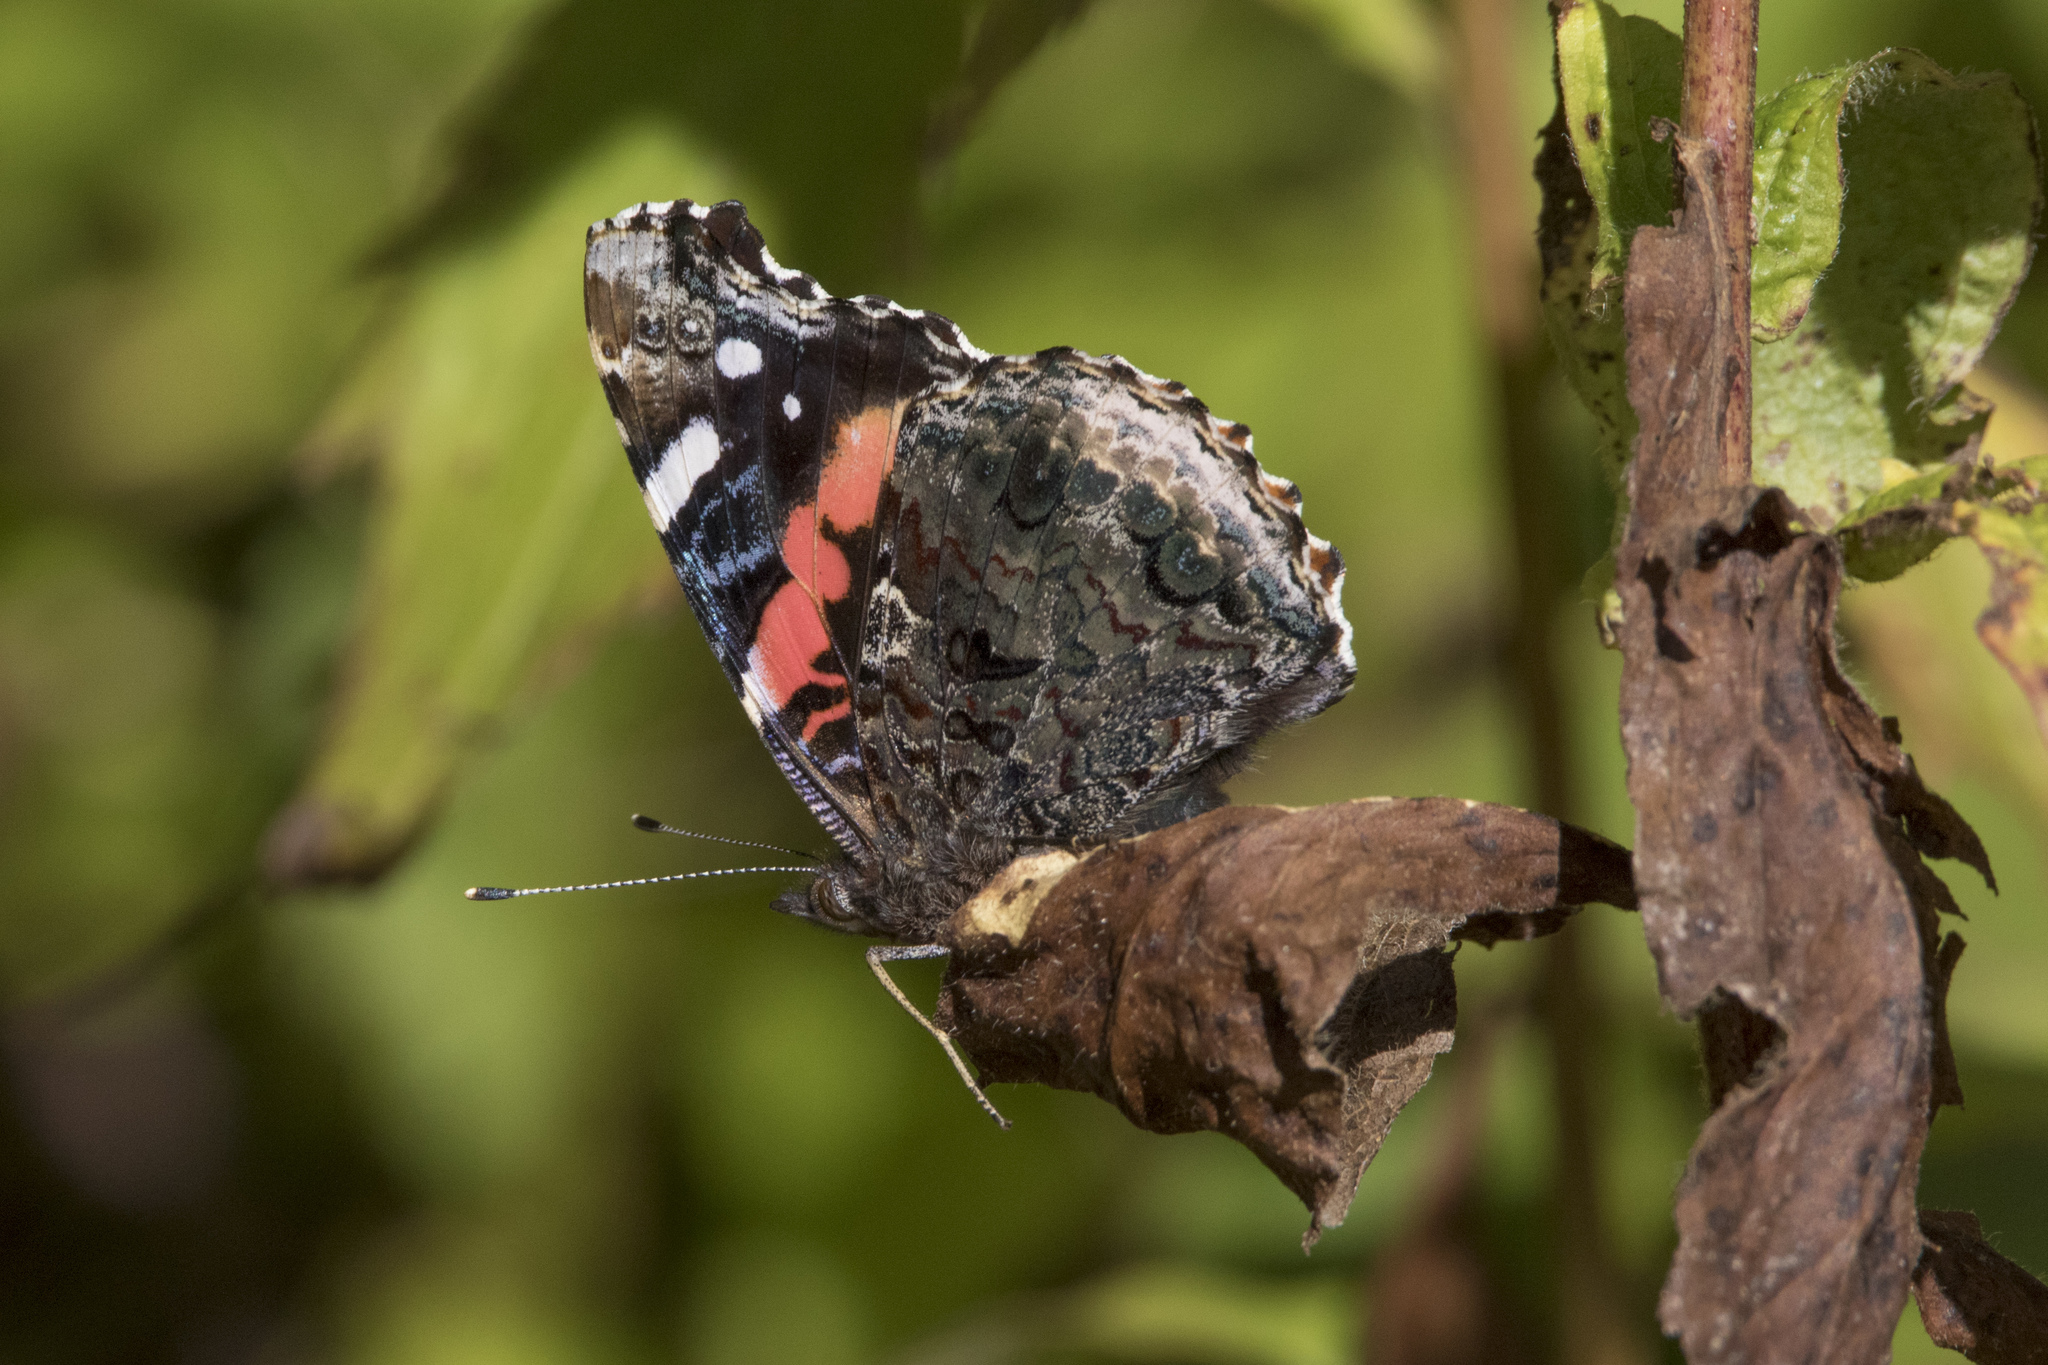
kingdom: Animalia
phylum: Arthropoda
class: Insecta
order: Lepidoptera
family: Nymphalidae
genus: Vanessa
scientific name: Vanessa atalanta
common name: Red admiral
